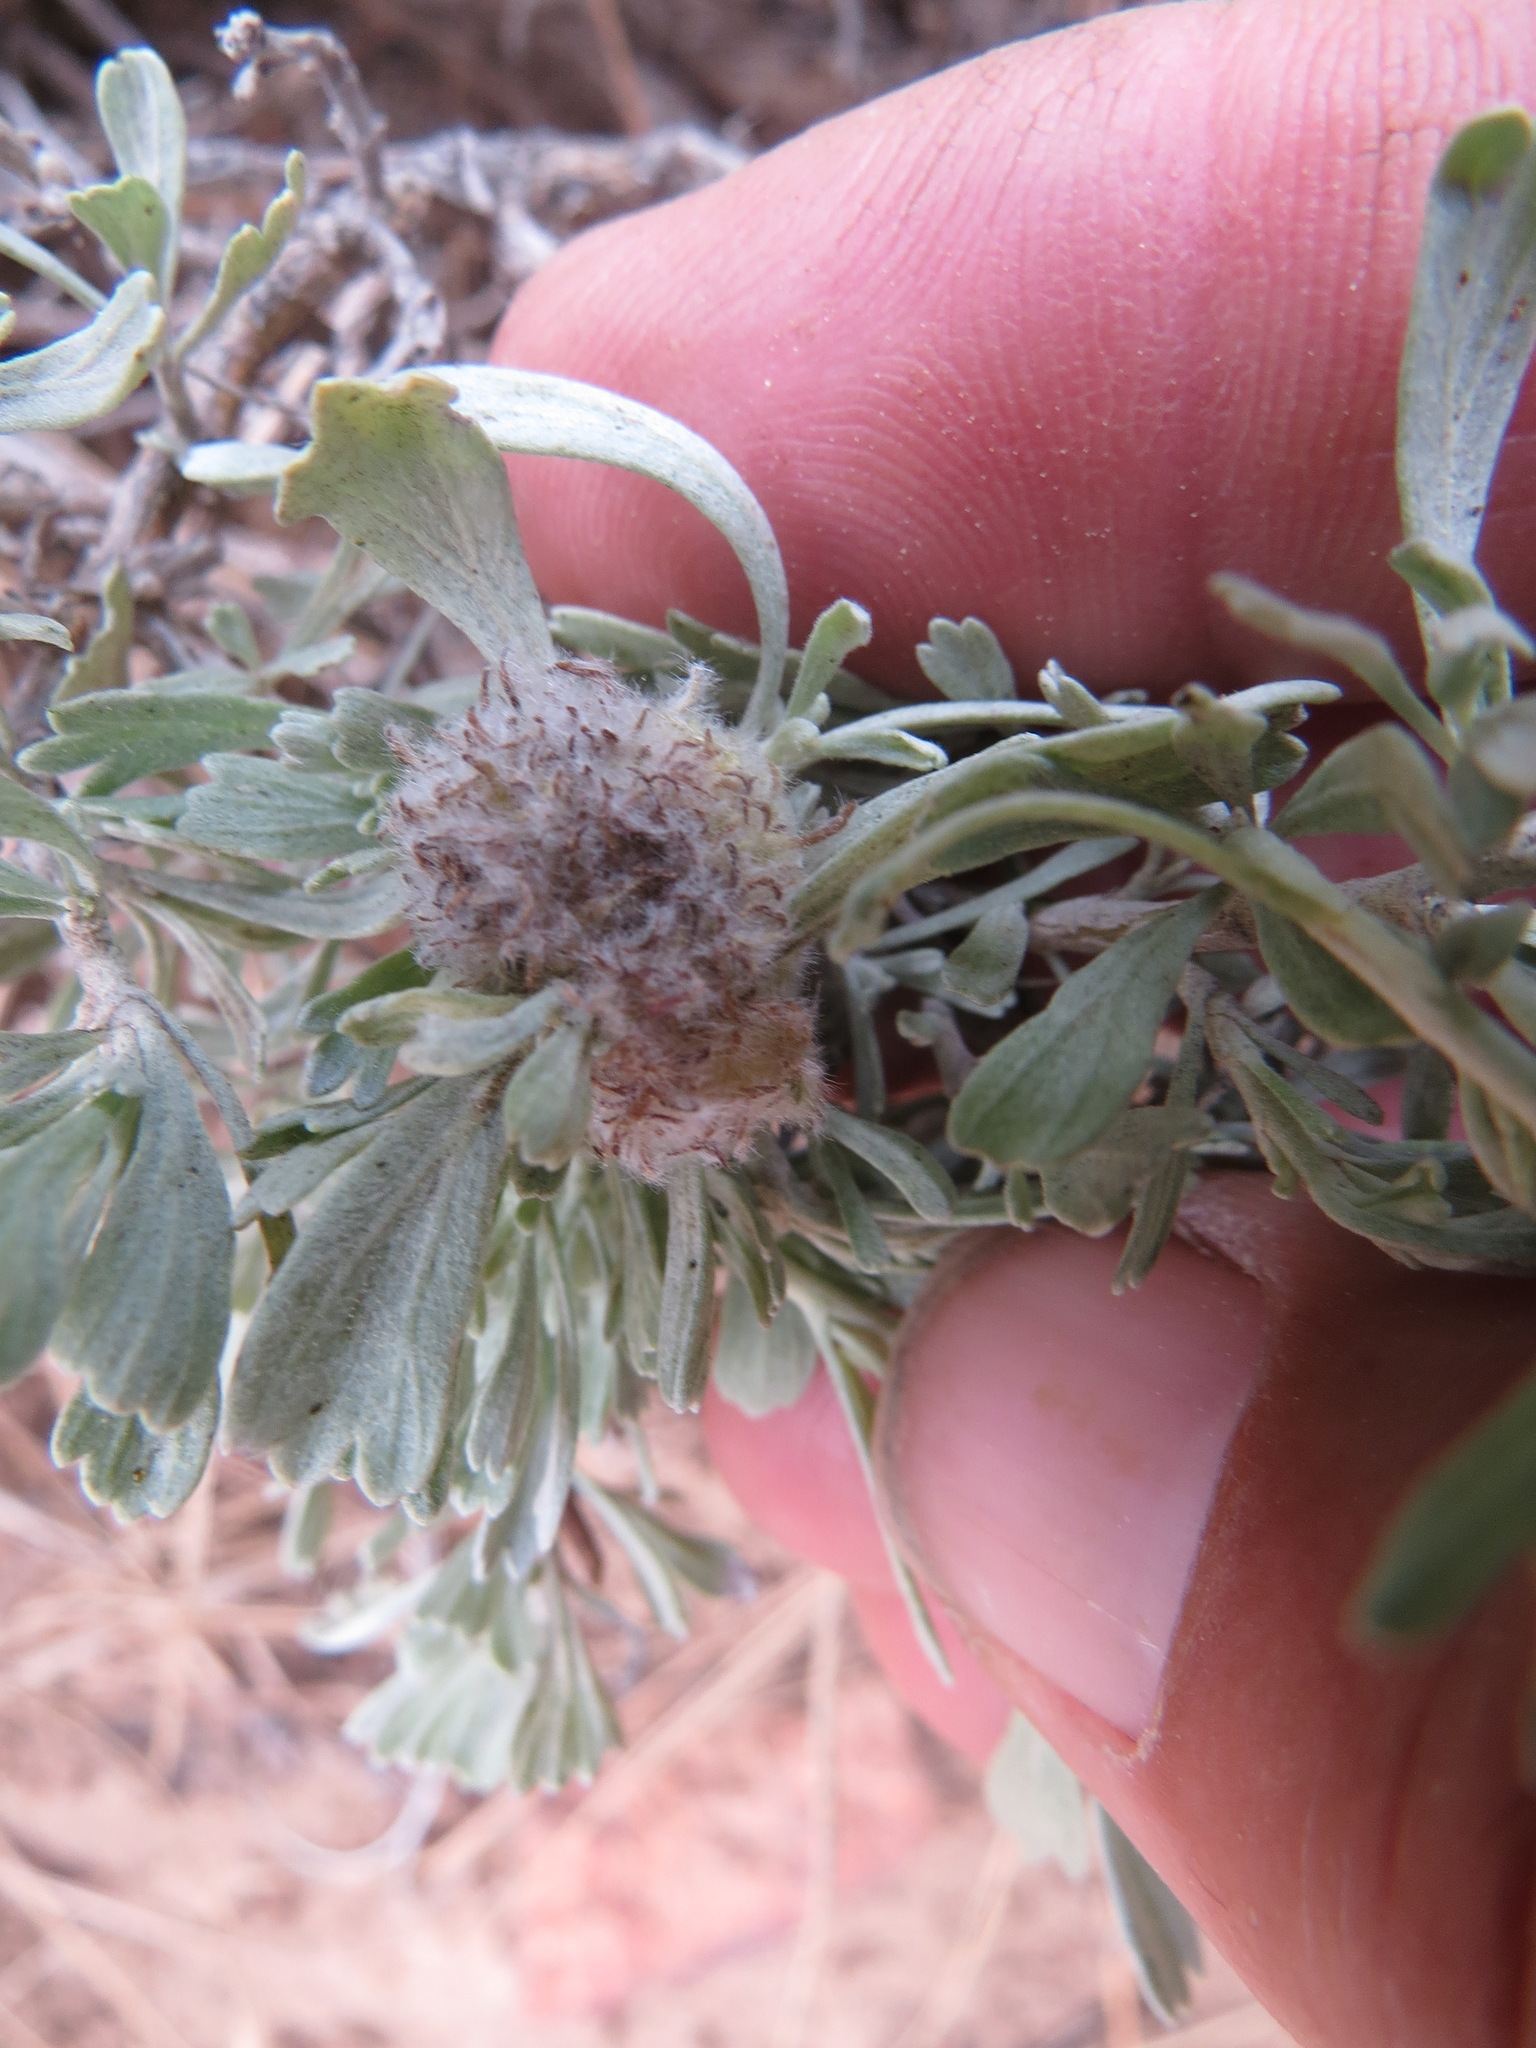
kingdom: Animalia
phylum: Arthropoda
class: Insecta
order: Diptera
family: Cecidomyiidae
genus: Rhopalomyia
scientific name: Rhopalomyia medusirrasa
